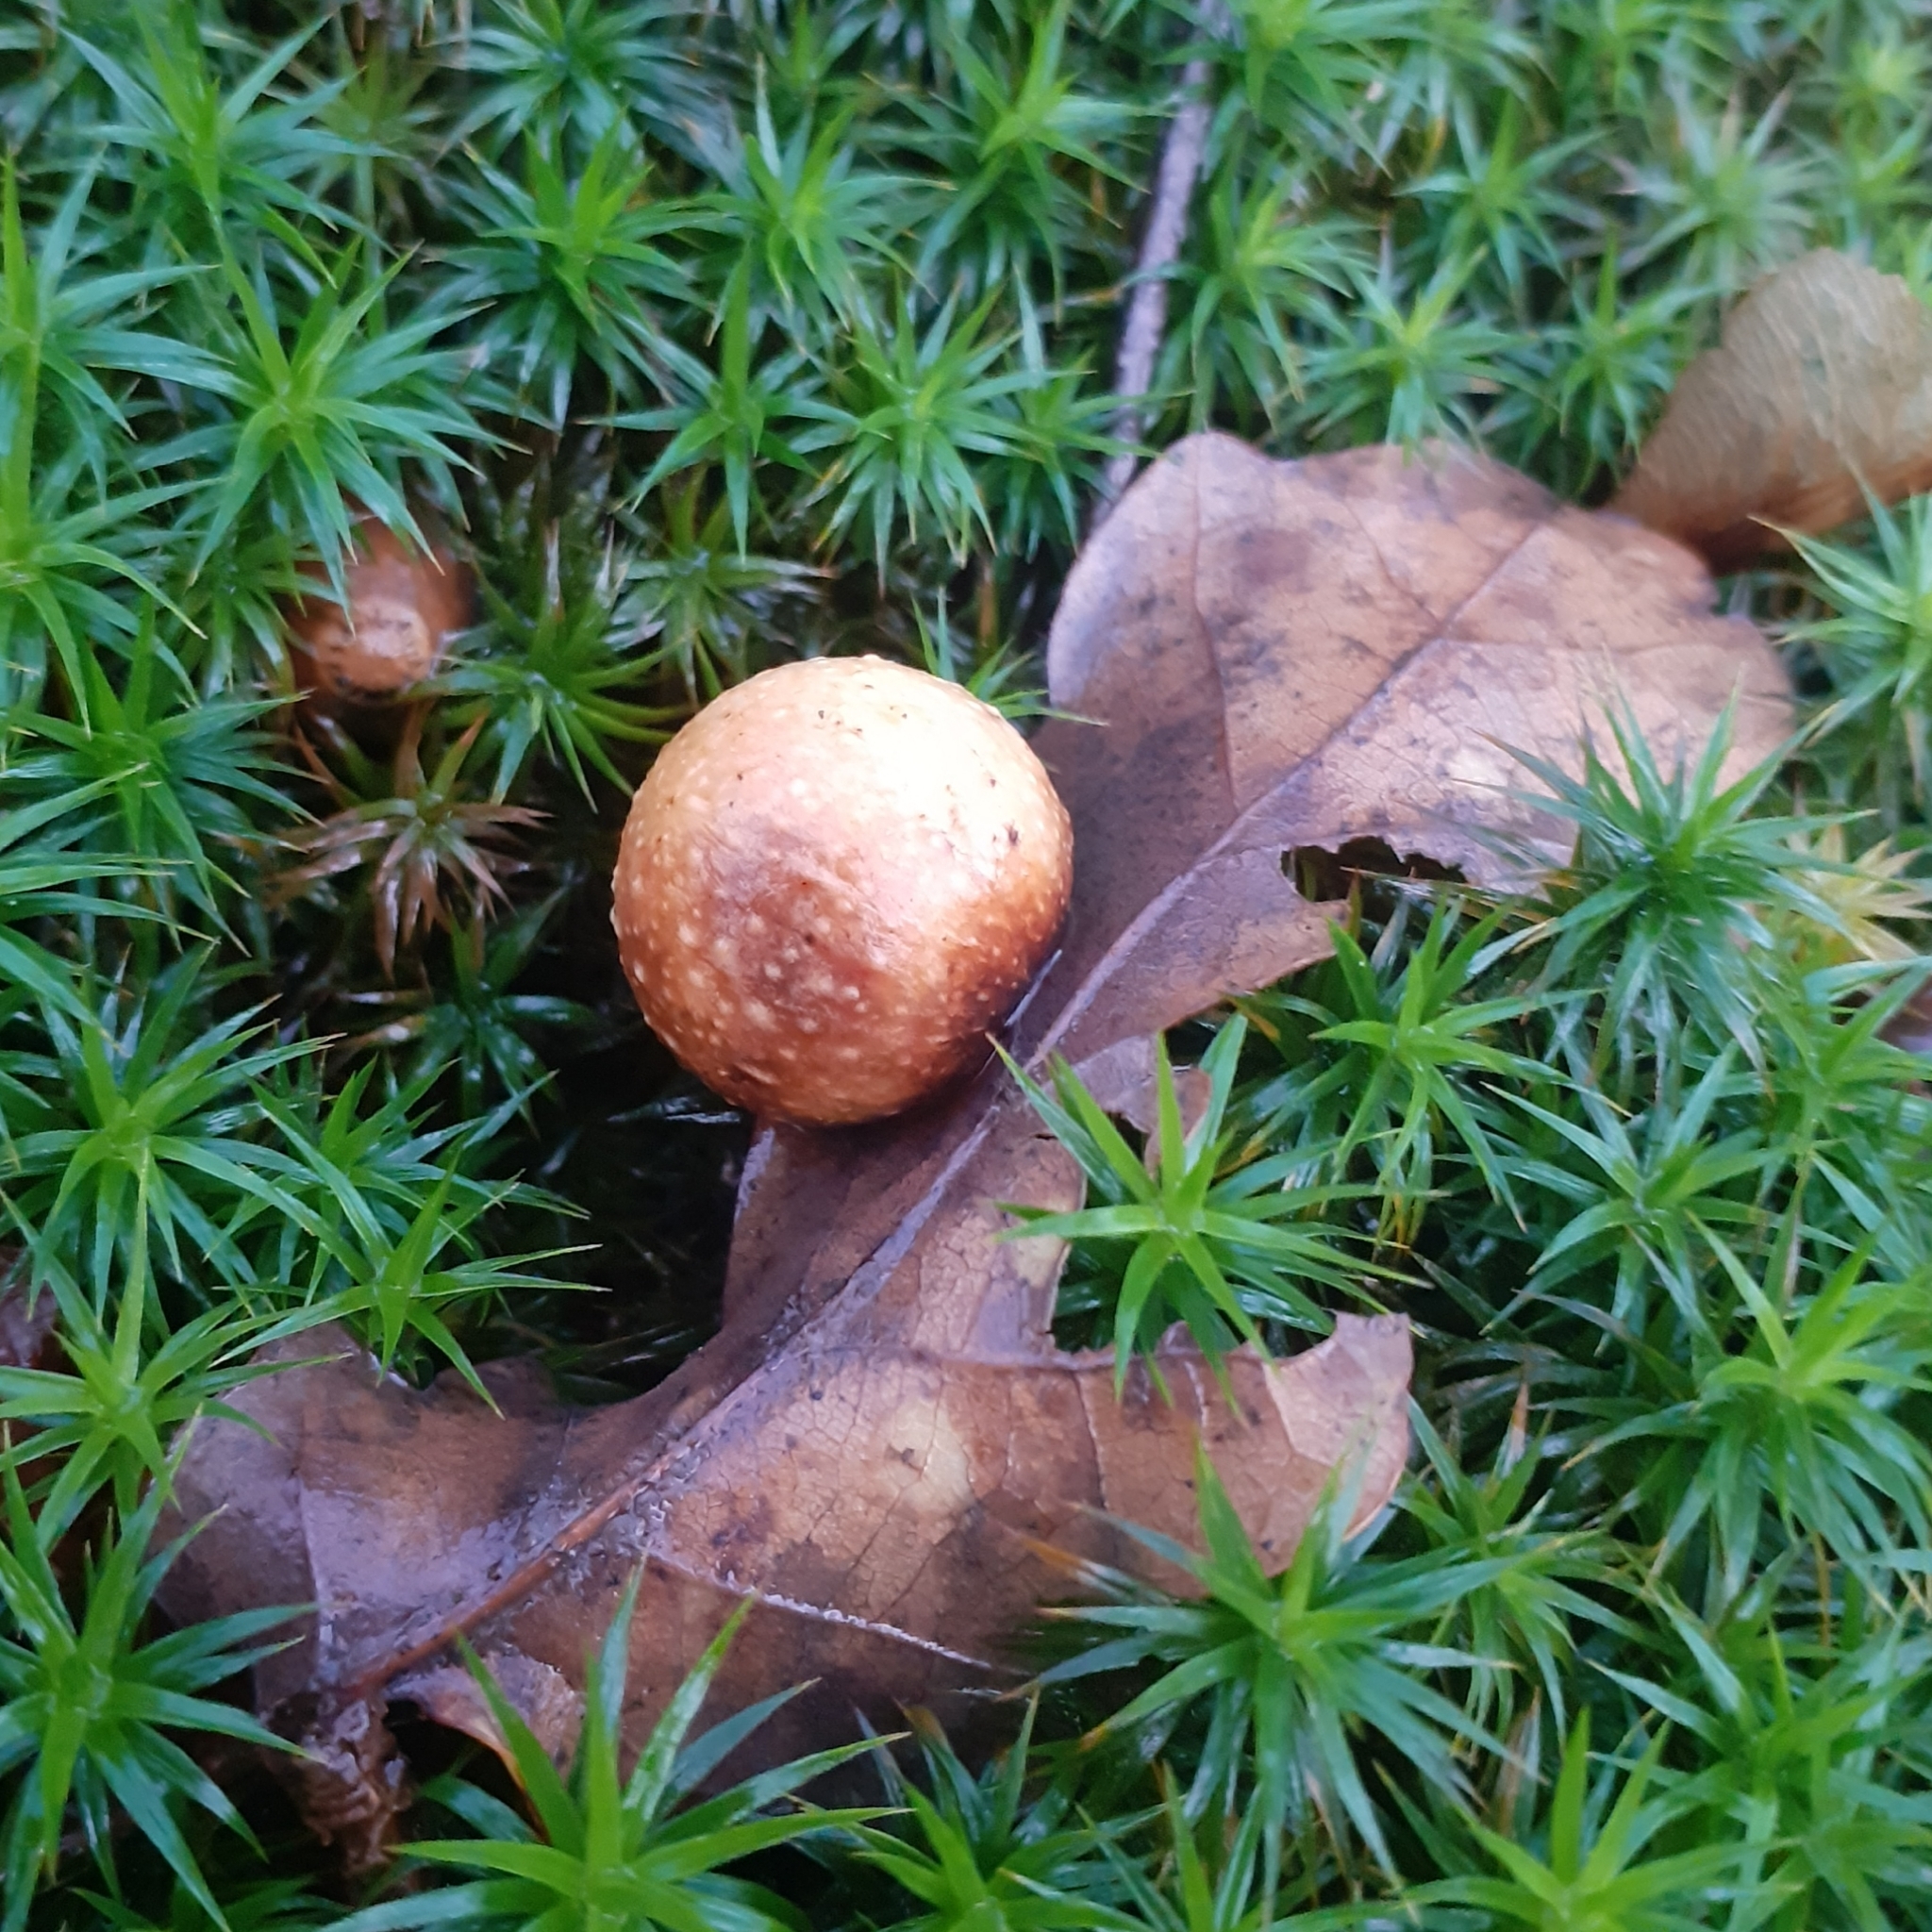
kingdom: Animalia
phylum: Arthropoda
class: Insecta
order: Hymenoptera
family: Cynipidae
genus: Cynips
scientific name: Cynips quercusfolii
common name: Cherry gall
